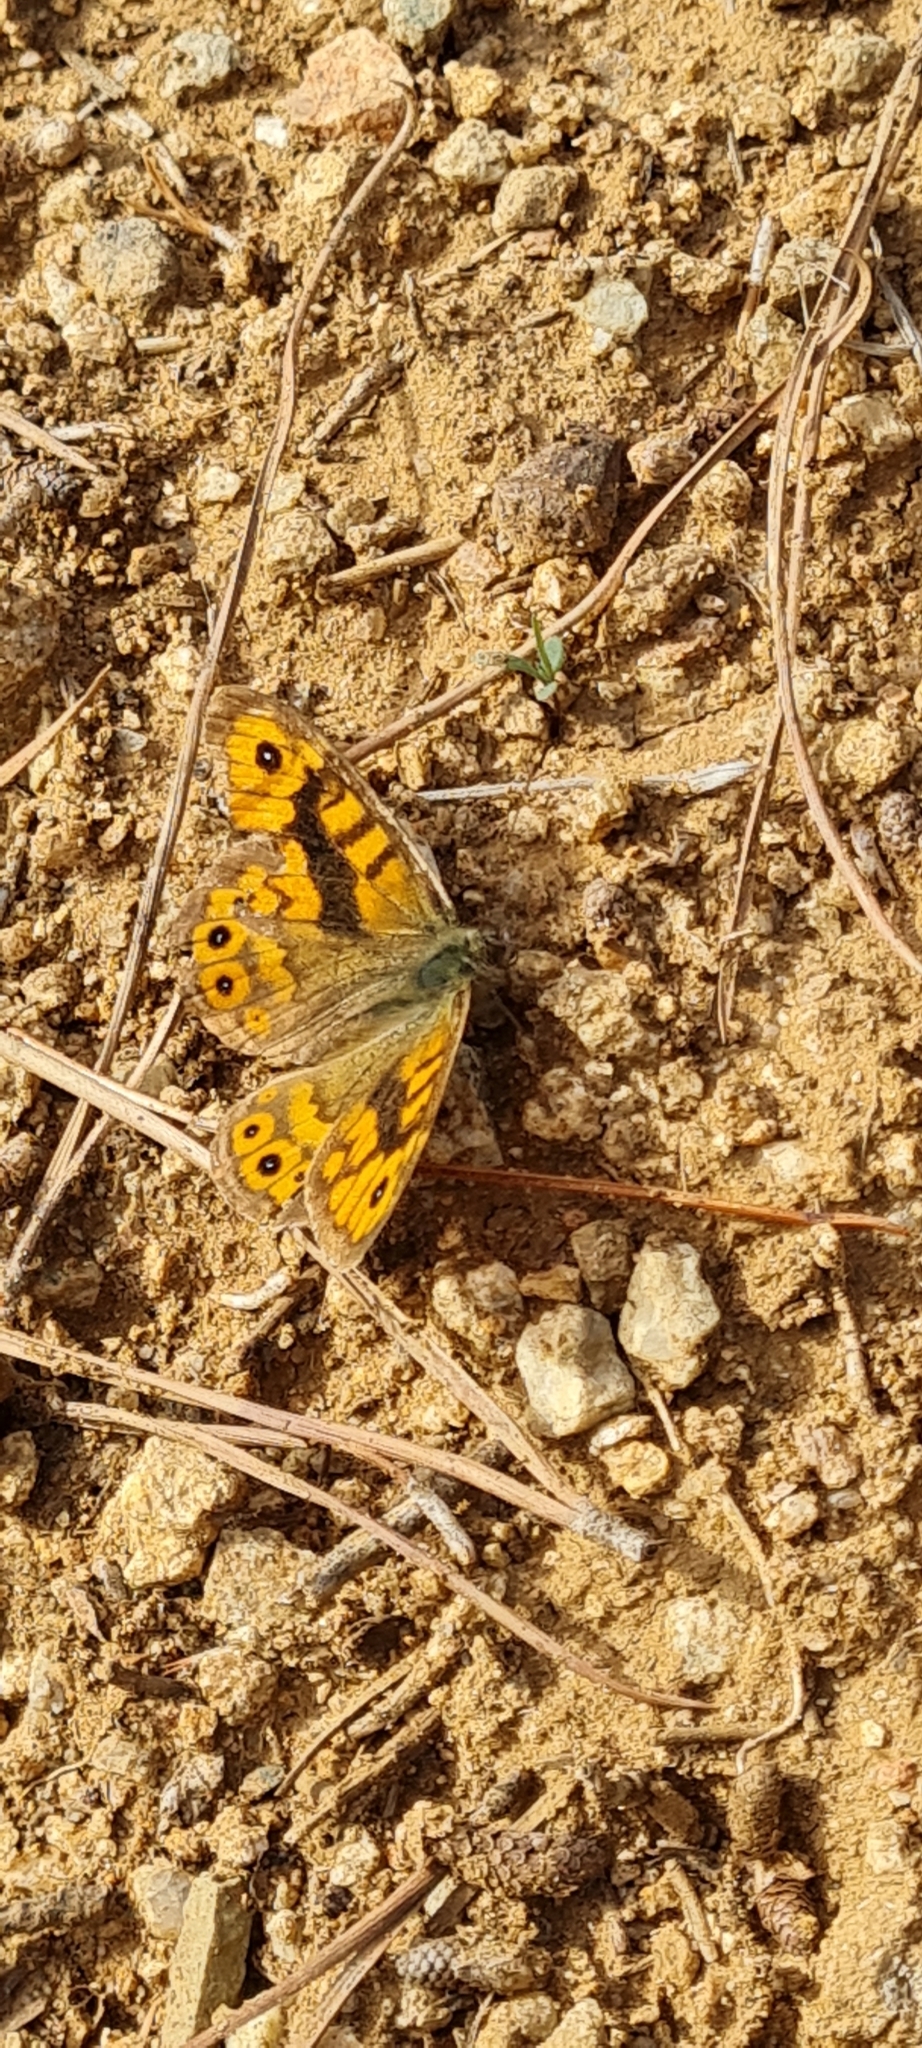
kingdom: Animalia
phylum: Arthropoda
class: Insecta
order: Lepidoptera
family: Nymphalidae
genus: Pararge
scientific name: Pararge Lasiommata megera
